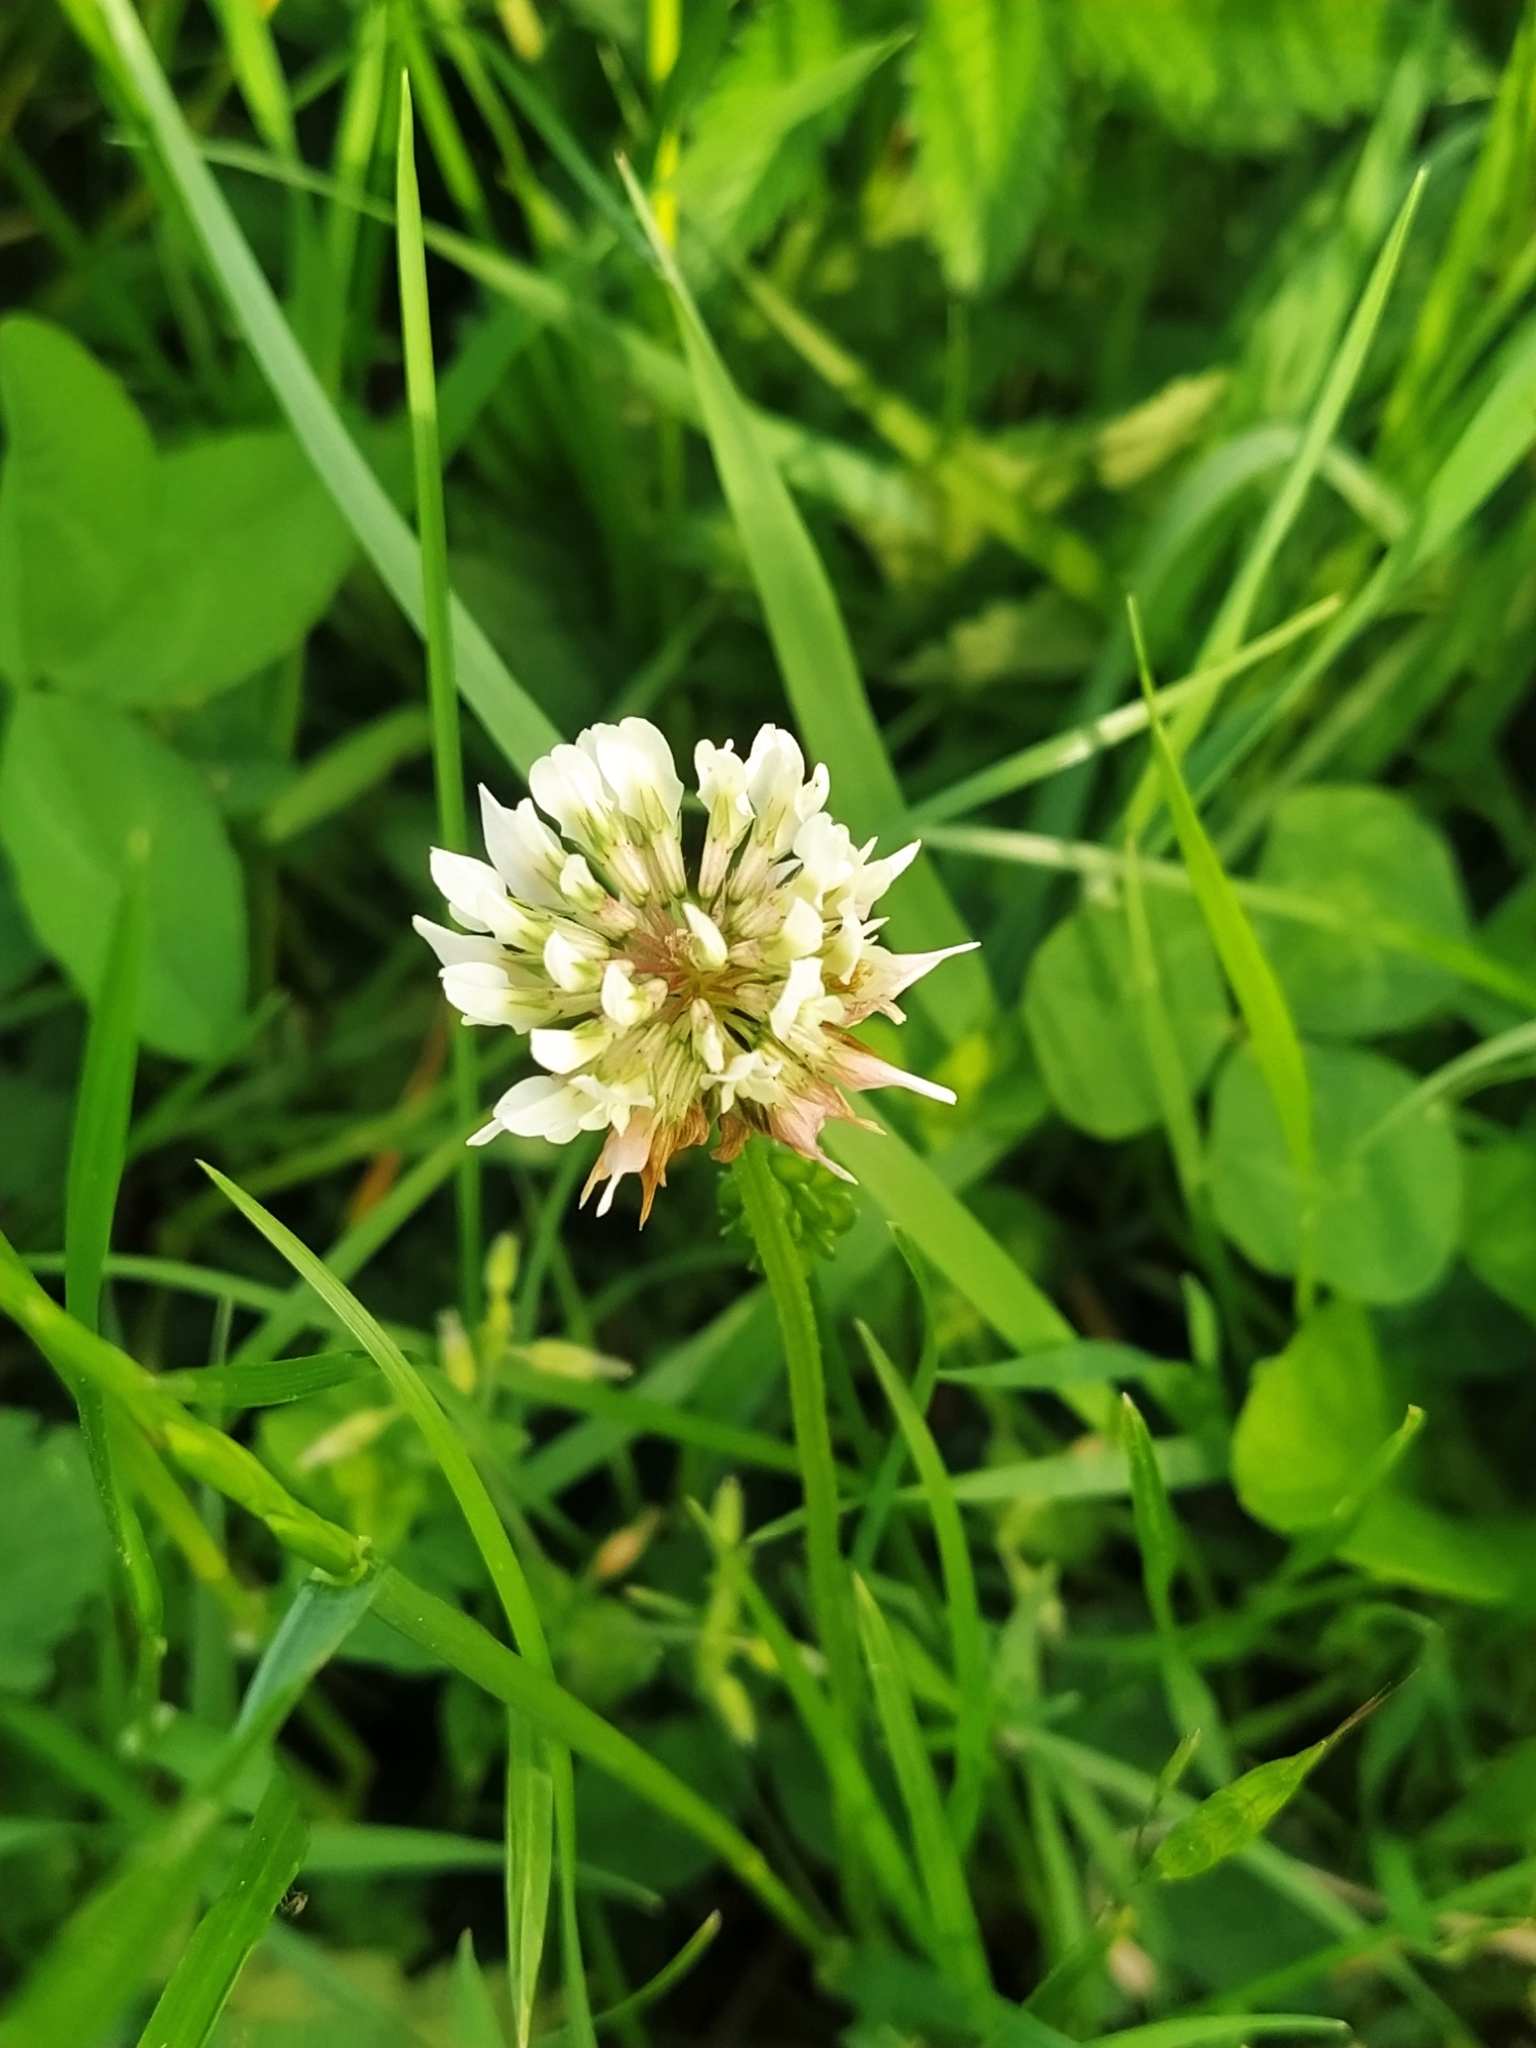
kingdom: Plantae
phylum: Tracheophyta
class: Magnoliopsida
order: Fabales
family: Fabaceae
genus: Trifolium
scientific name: Trifolium repens
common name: White clover
